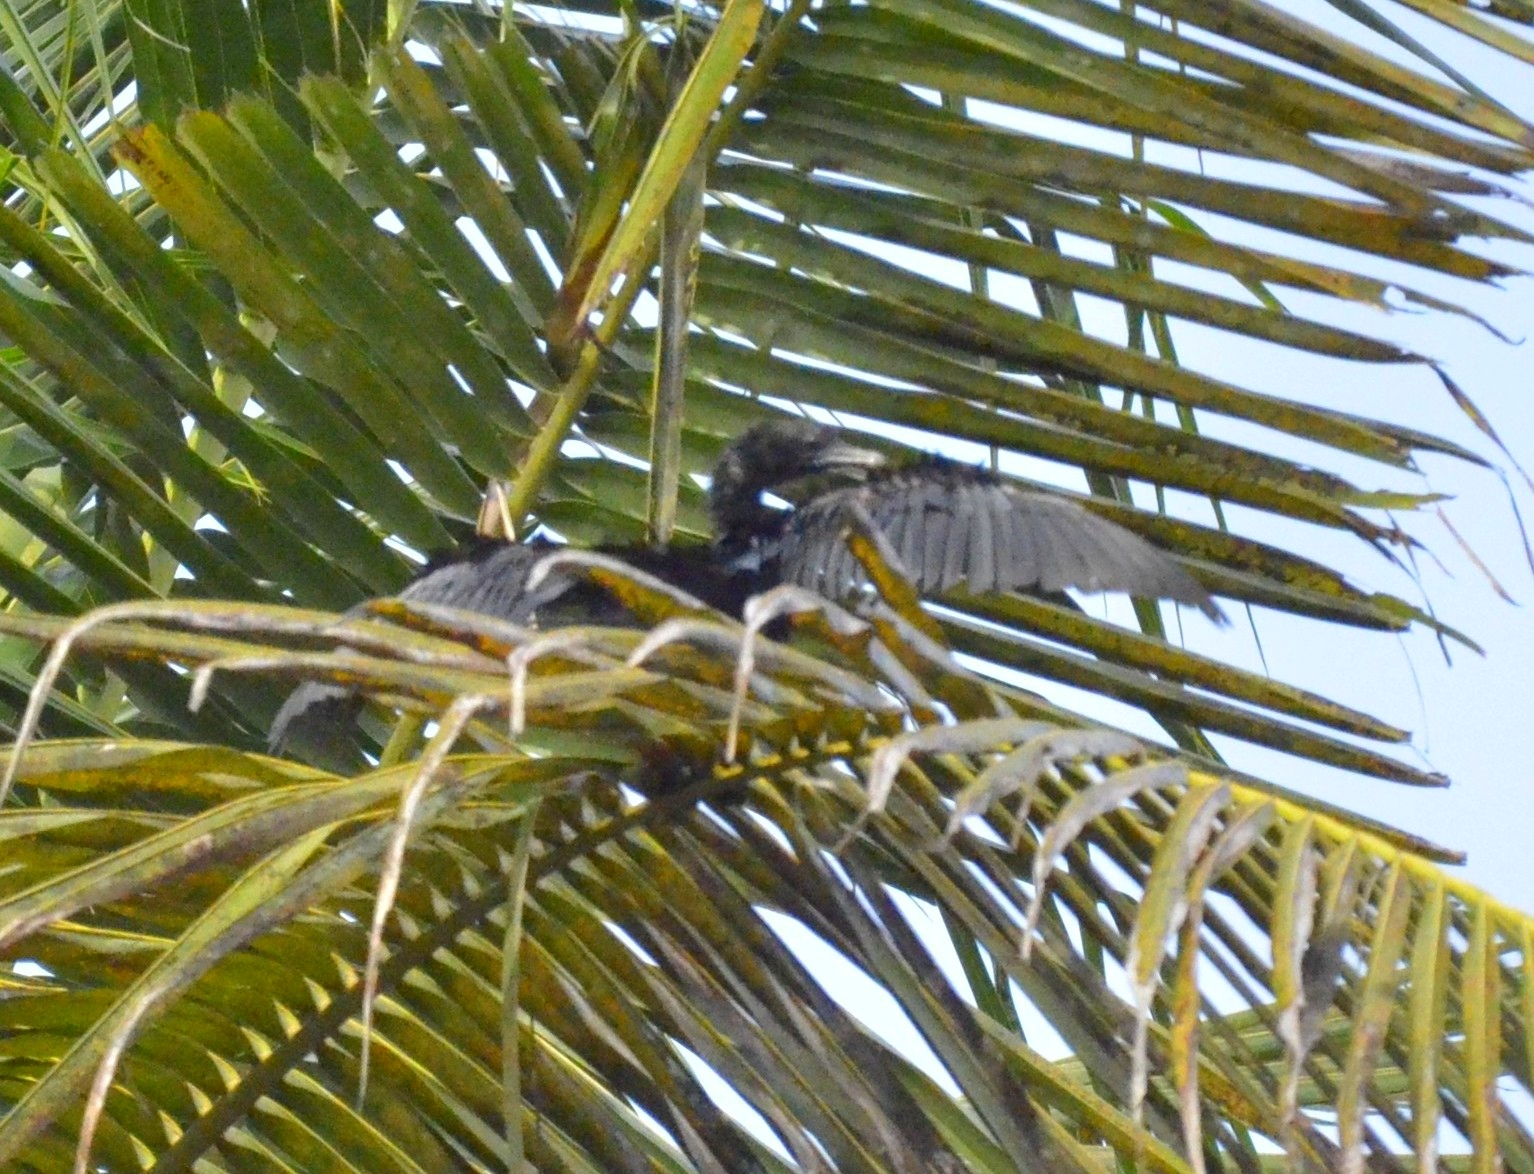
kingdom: Animalia
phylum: Chordata
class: Aves
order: Suliformes
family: Phalacrocoracidae
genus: Microcarbo
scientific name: Microcarbo niger
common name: Little cormorant
